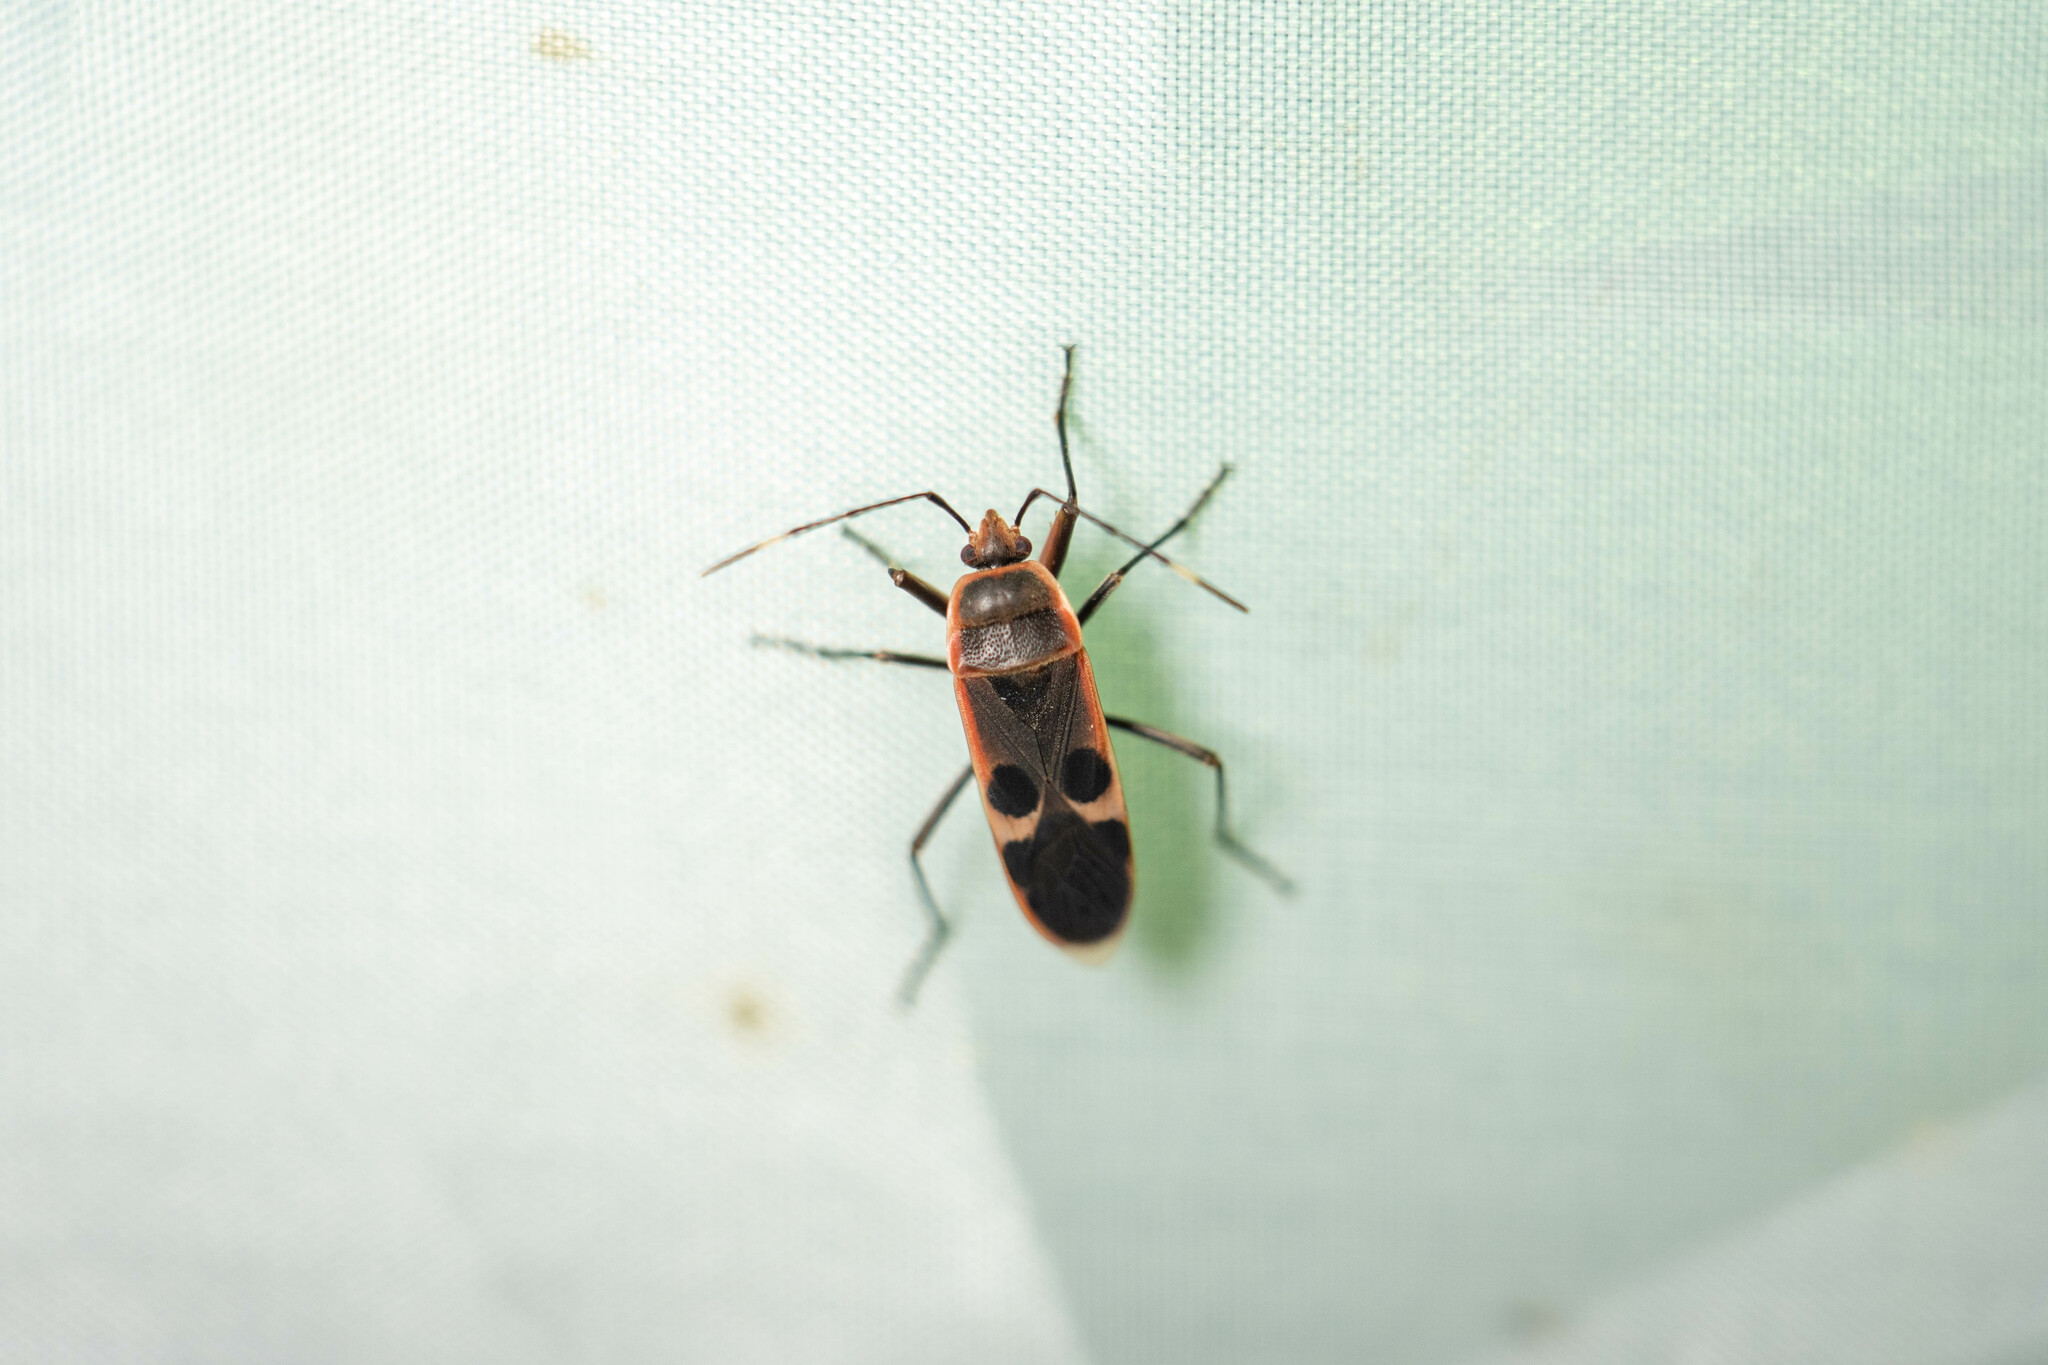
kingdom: Animalia
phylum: Arthropoda
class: Insecta
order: Hemiptera
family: Largidae
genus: Physopelta
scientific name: Physopelta gutta
